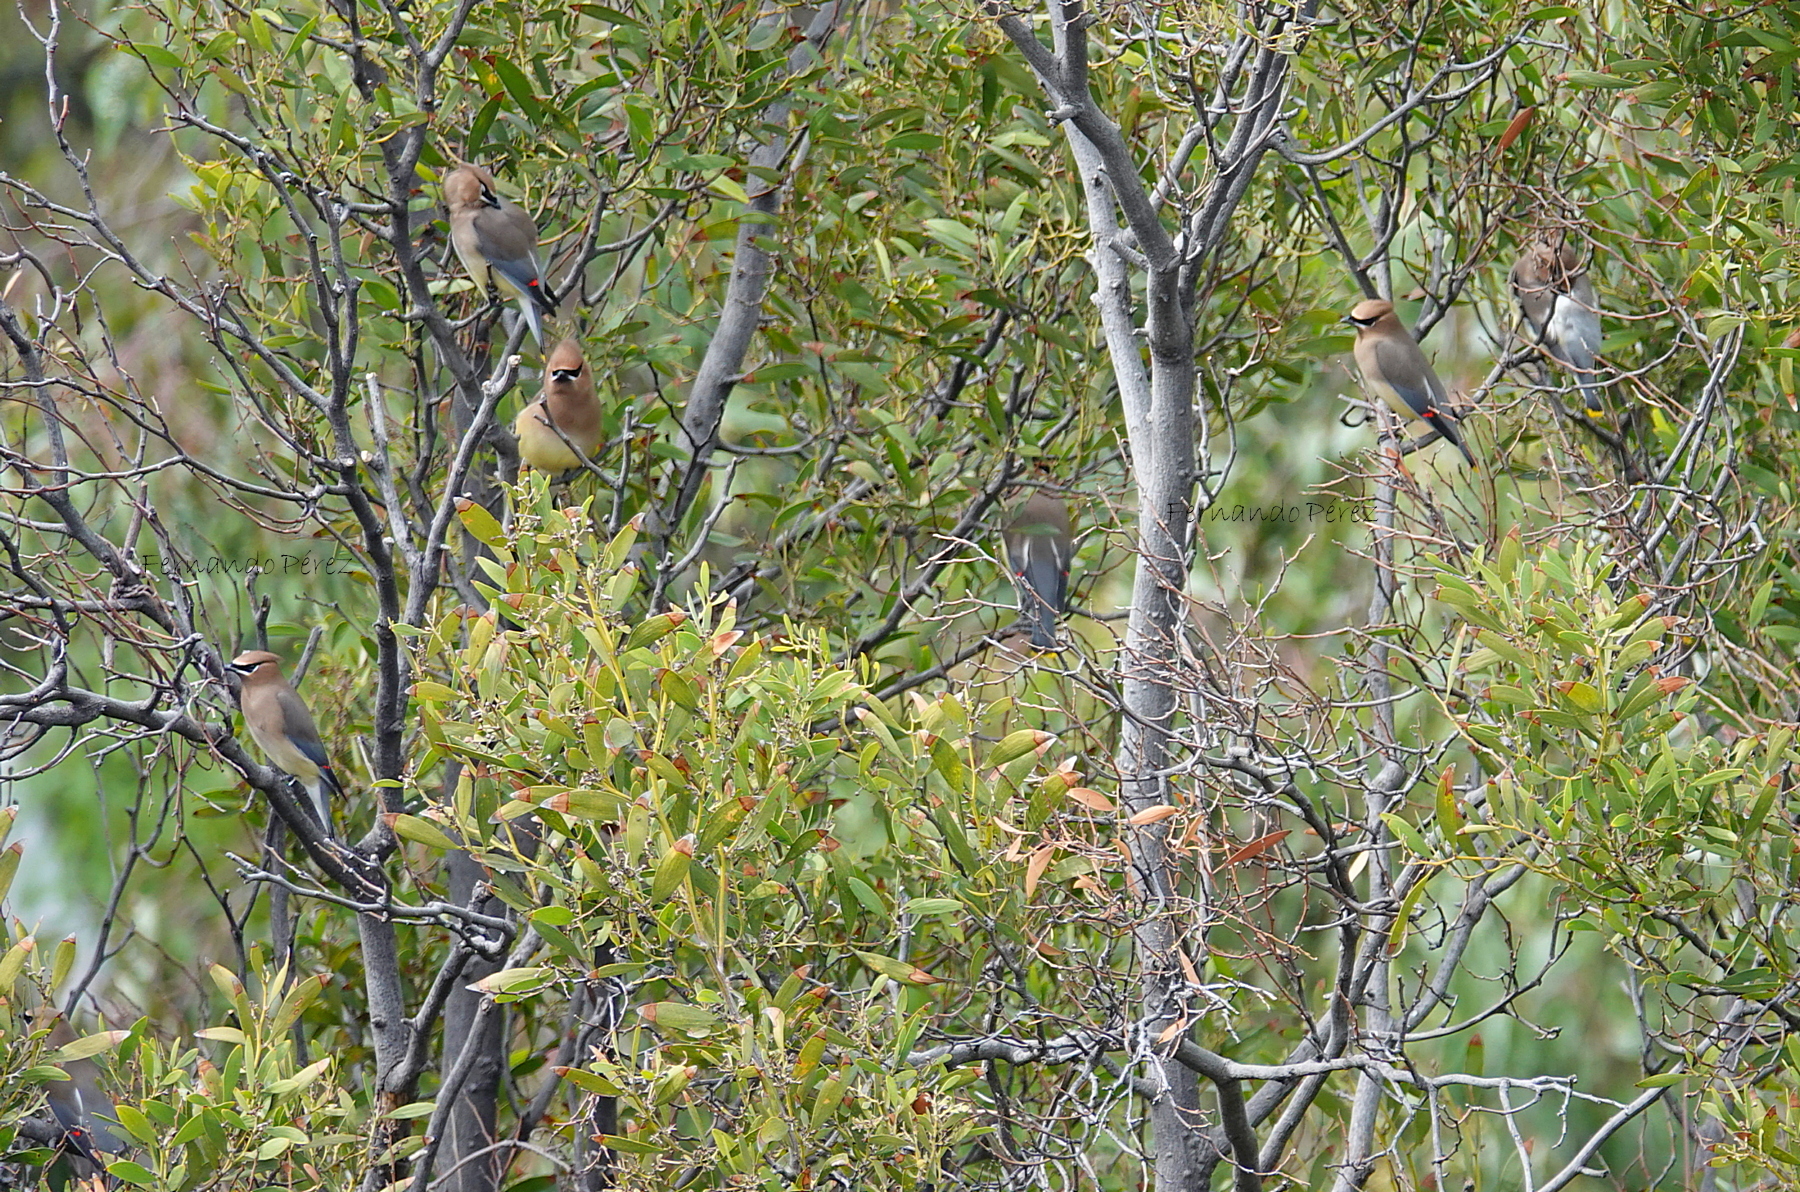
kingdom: Animalia
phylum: Chordata
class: Aves
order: Passeriformes
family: Bombycillidae
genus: Bombycilla
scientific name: Bombycilla cedrorum
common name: Cedar waxwing
